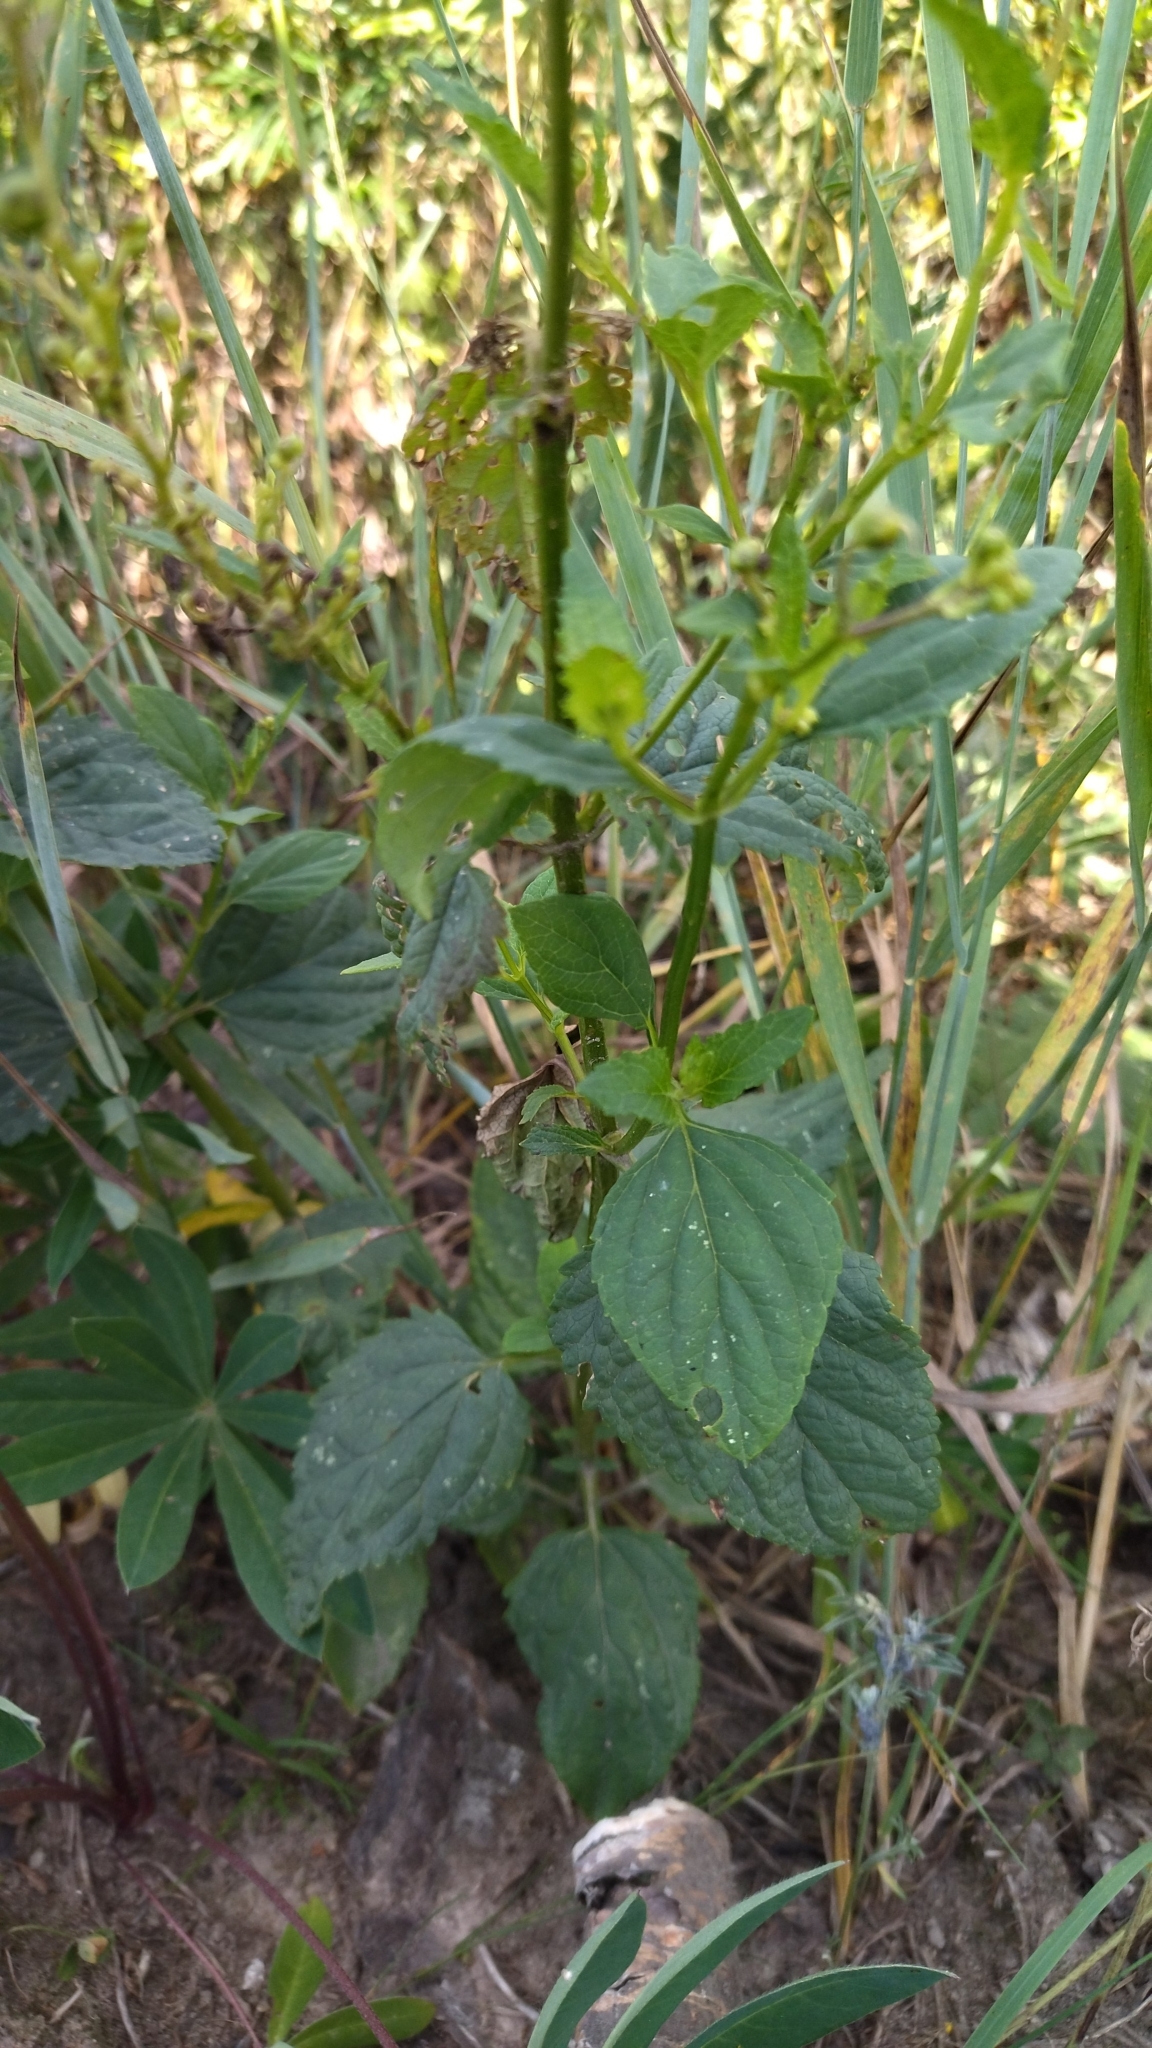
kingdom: Plantae
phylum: Tracheophyta
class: Magnoliopsida
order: Lamiales
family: Scrophulariaceae
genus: Scrophularia
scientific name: Scrophularia nodosa
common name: Common figwort
